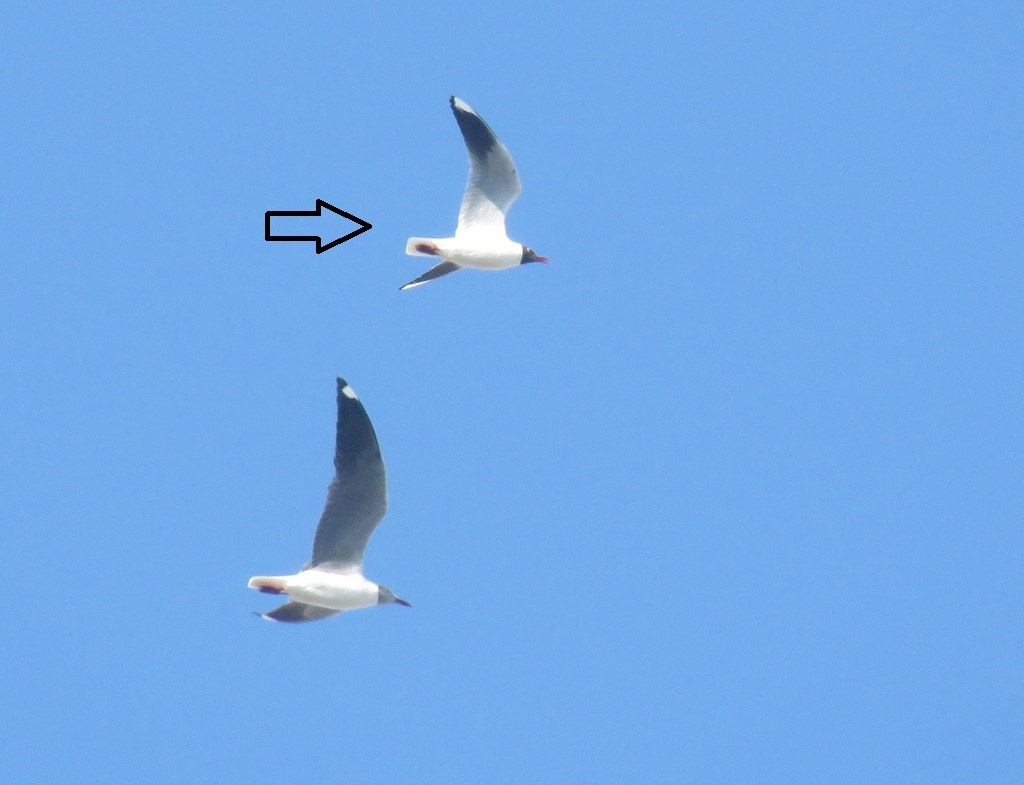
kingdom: Animalia
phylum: Chordata
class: Aves
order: Charadriiformes
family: Laridae
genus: Chroicocephalus
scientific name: Chroicocephalus maculipennis
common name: Brown-hooded gull
